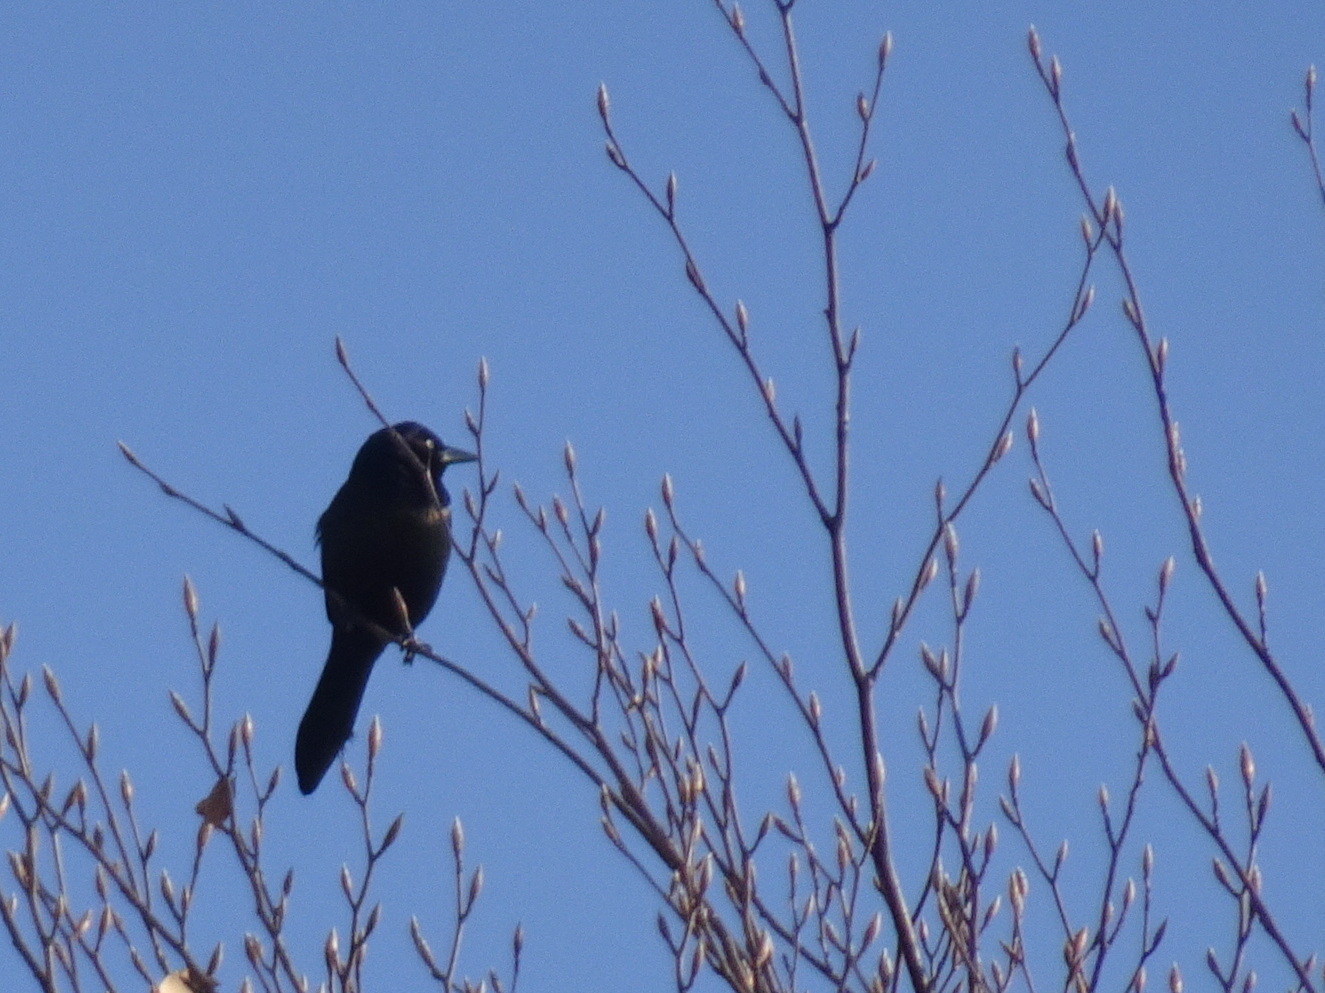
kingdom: Animalia
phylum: Chordata
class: Aves
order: Passeriformes
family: Icteridae
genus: Quiscalus
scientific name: Quiscalus quiscula
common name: Common grackle
